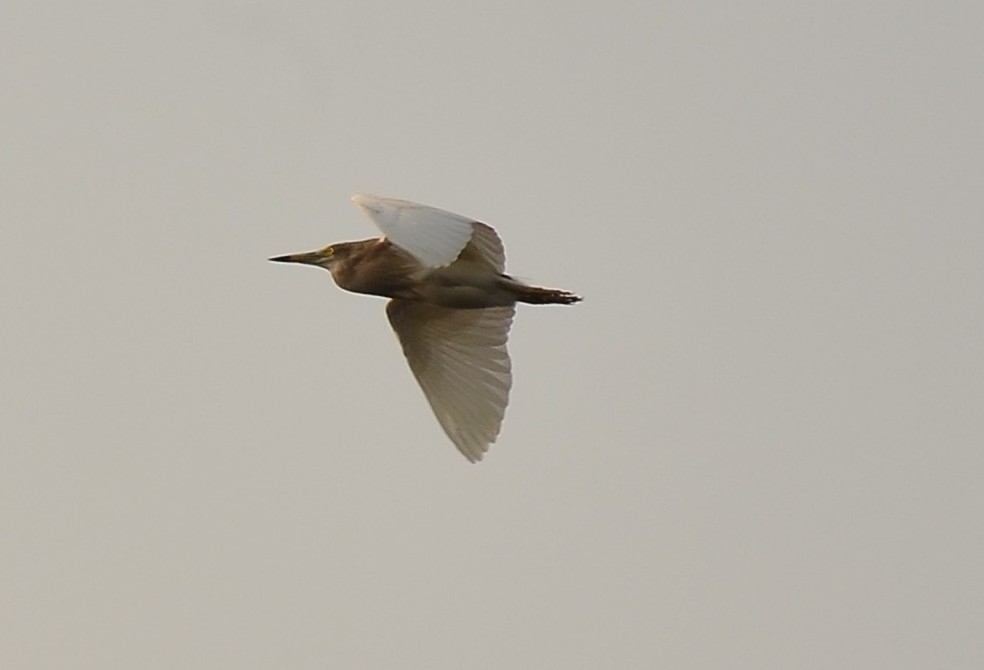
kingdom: Animalia
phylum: Chordata
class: Aves
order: Pelecaniformes
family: Ardeidae
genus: Ardeola
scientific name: Ardeola grayii
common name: Indian pond heron
